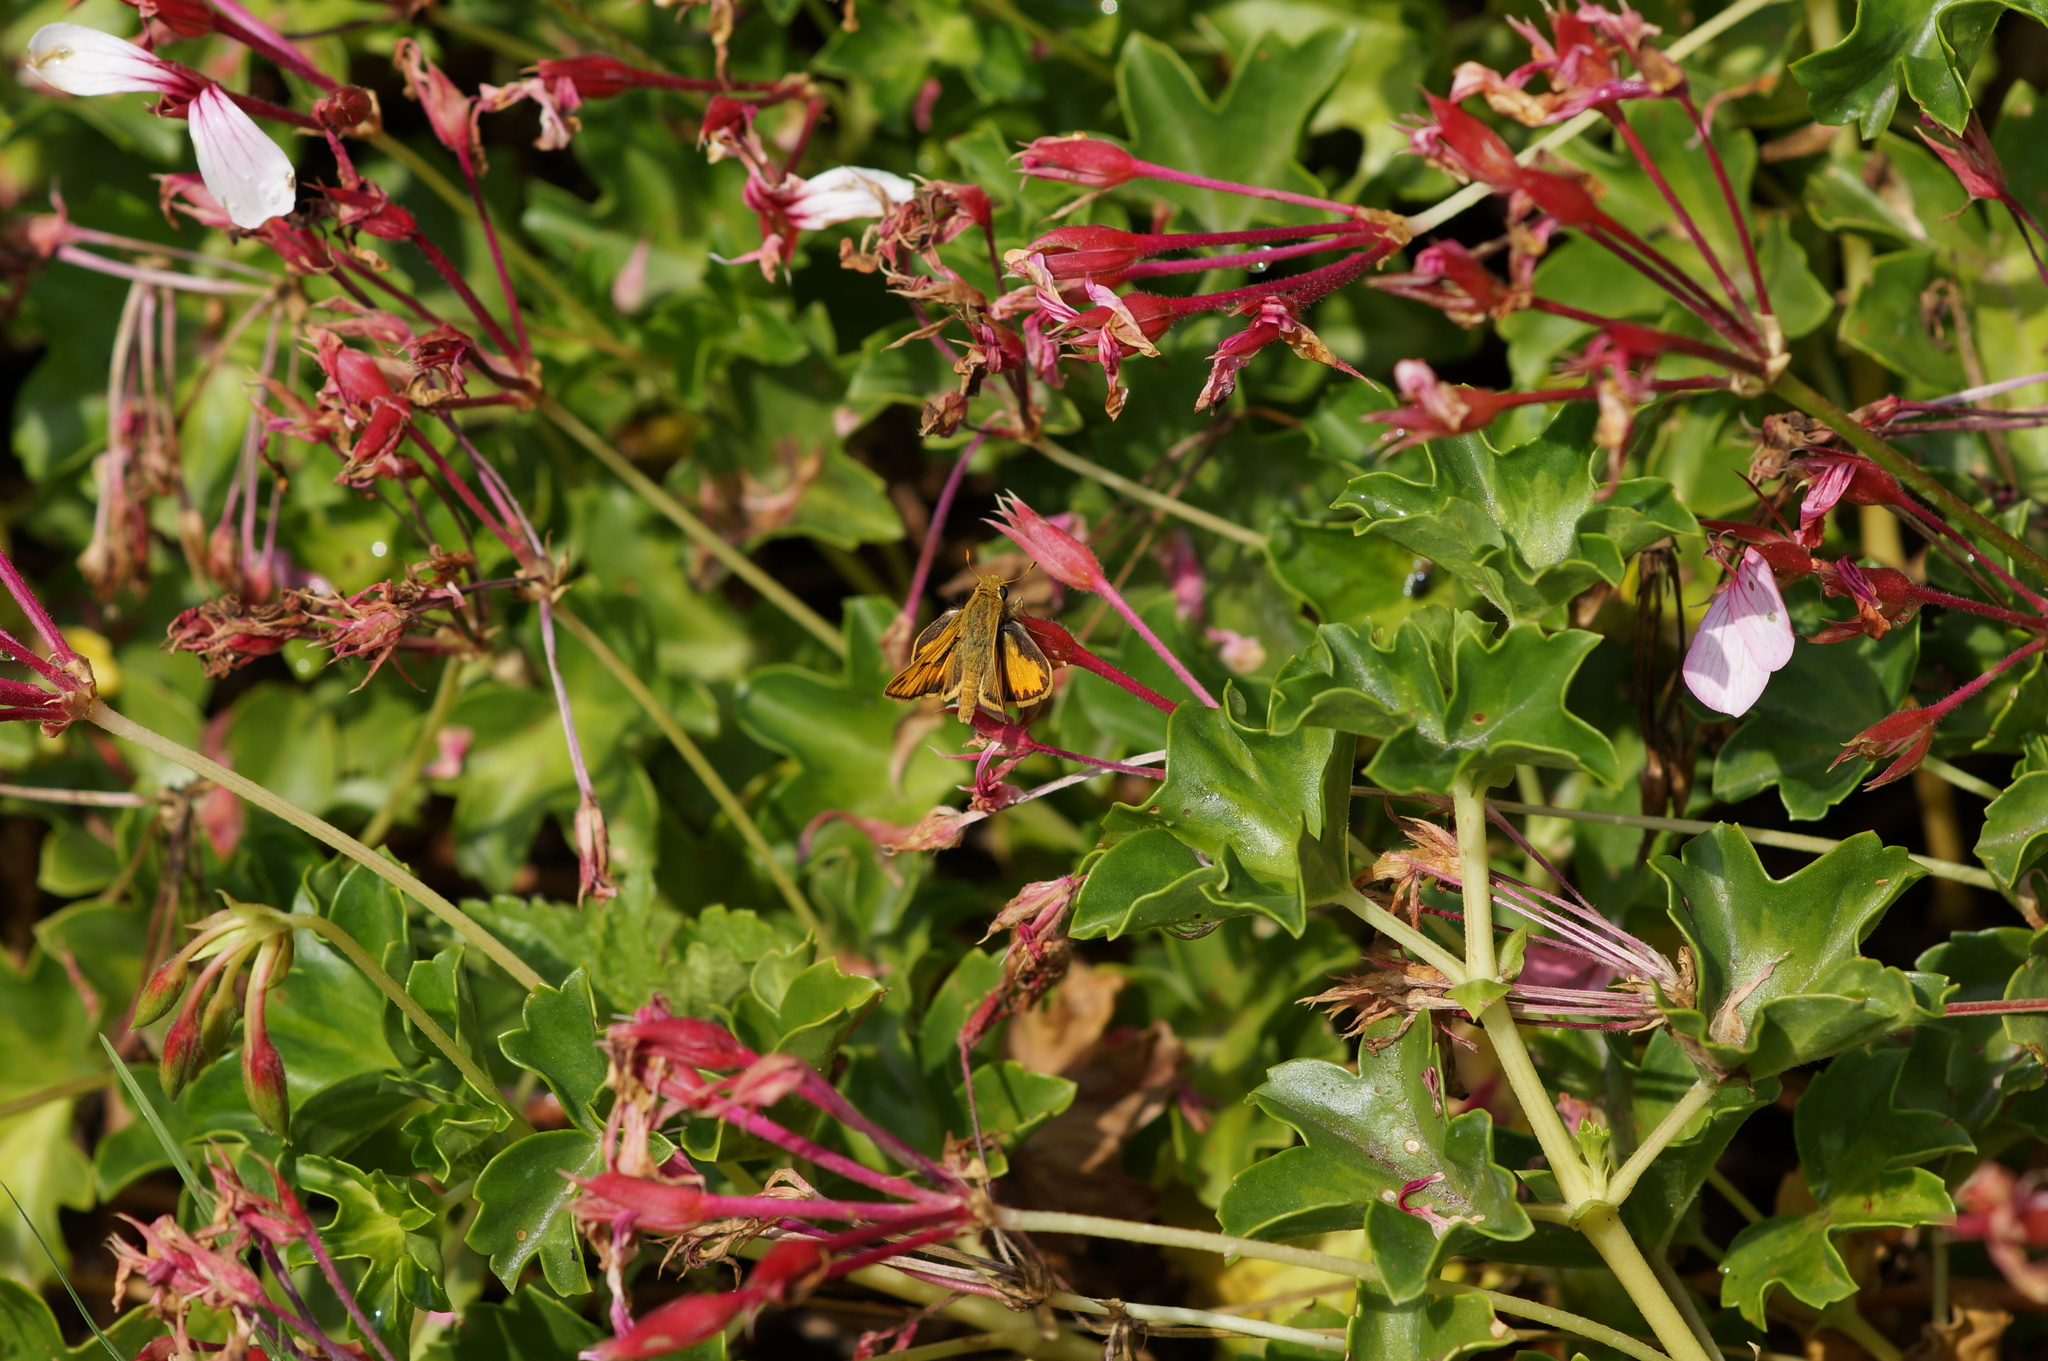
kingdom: Animalia
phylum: Arthropoda
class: Insecta
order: Lepidoptera
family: Hesperiidae
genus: Hylephila
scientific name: Hylephila phyleus
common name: Fiery skipper
